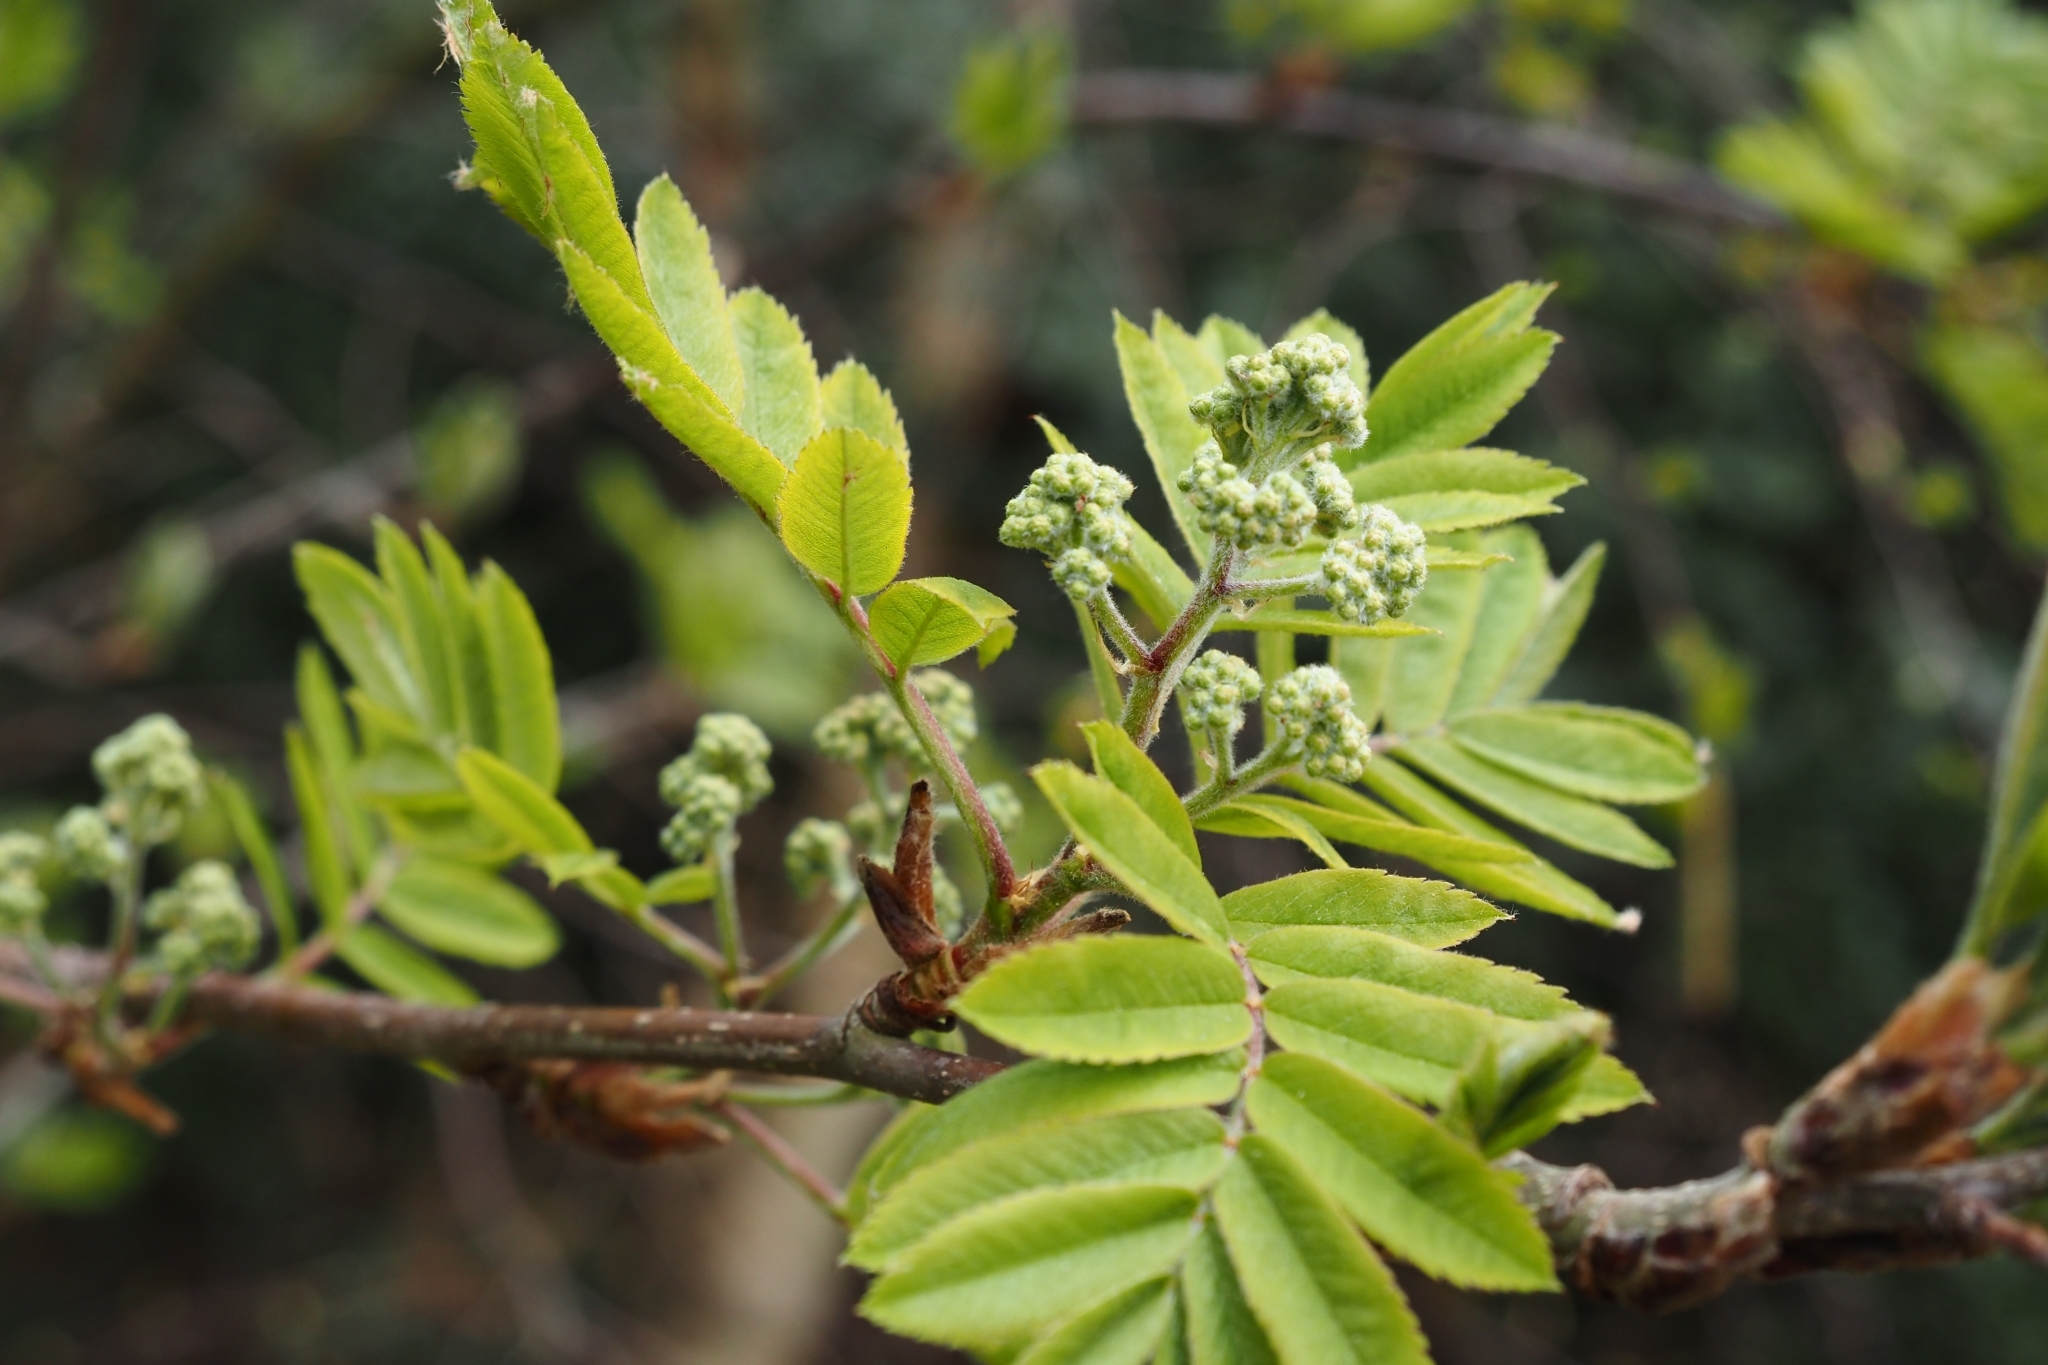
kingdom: Plantae
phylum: Tracheophyta
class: Magnoliopsida
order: Rosales
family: Rosaceae
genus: Sorbus
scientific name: Sorbus aucuparia
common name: Rowan
